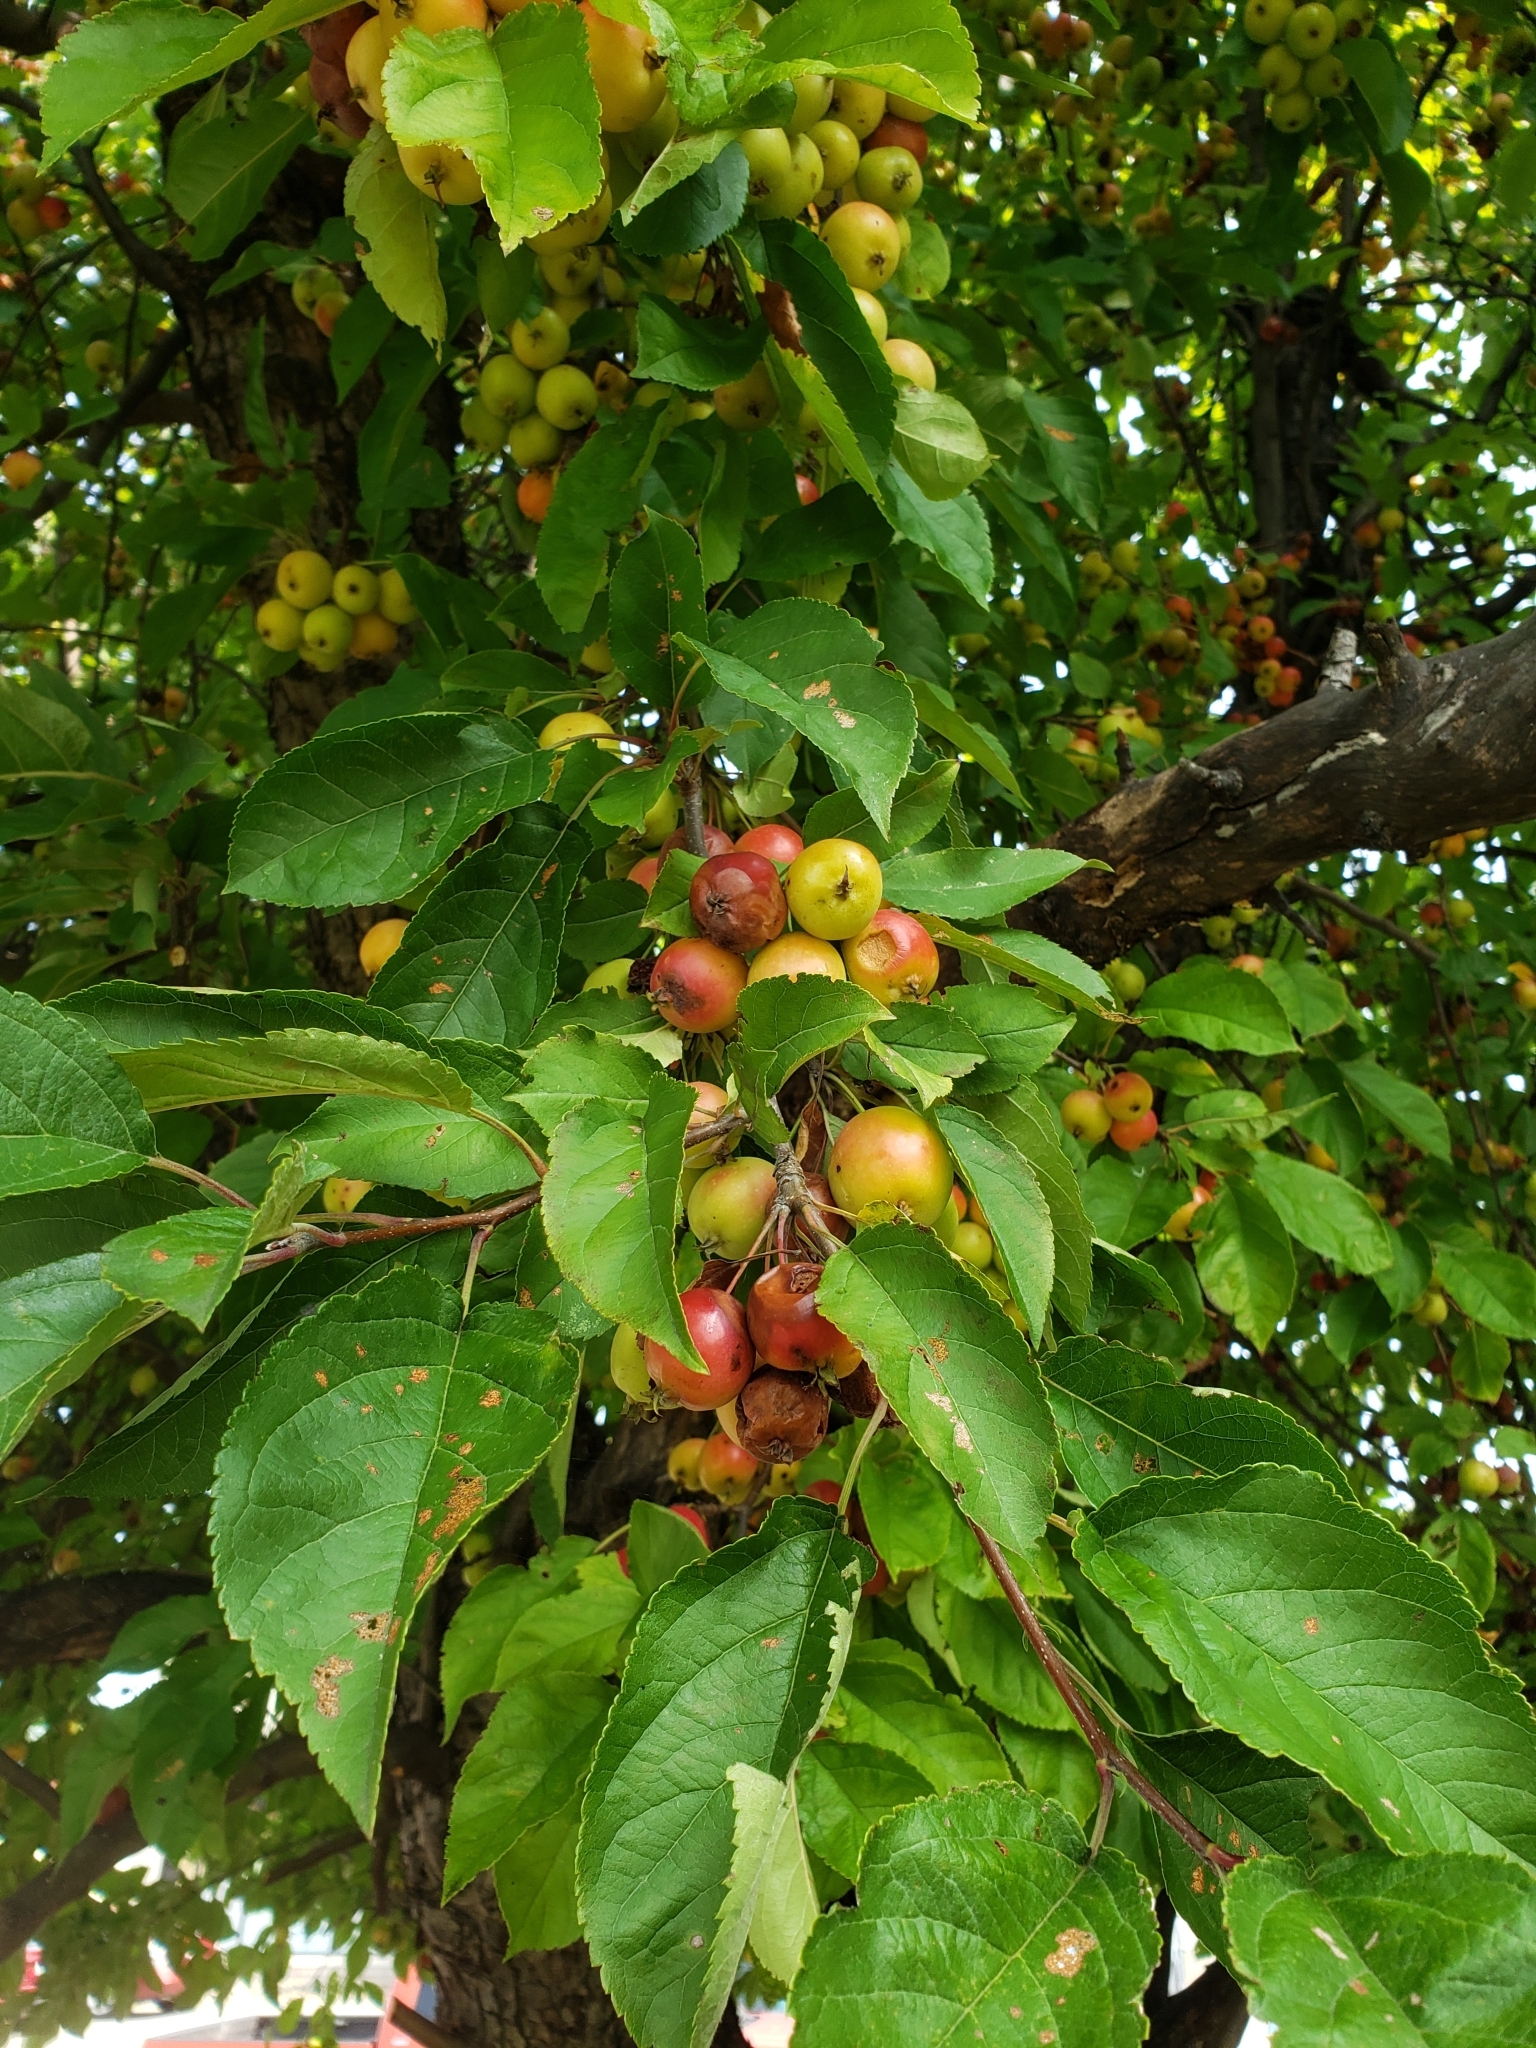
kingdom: Plantae
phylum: Tracheophyta
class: Magnoliopsida
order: Rosales
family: Rosaceae
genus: Malus
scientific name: Malus domestica
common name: Apple
